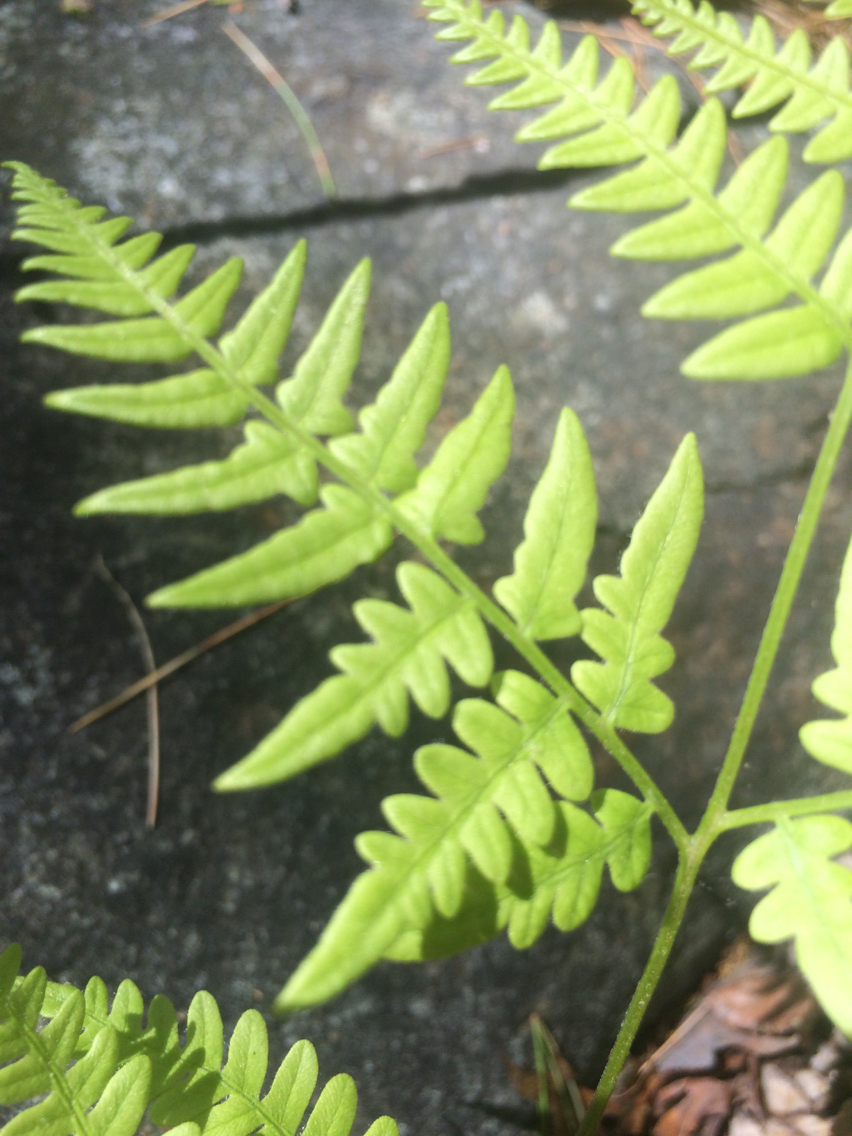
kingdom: Plantae
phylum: Tracheophyta
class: Polypodiopsida
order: Polypodiales
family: Dennstaedtiaceae
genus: Pteridium
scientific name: Pteridium aquilinum
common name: Bracken
